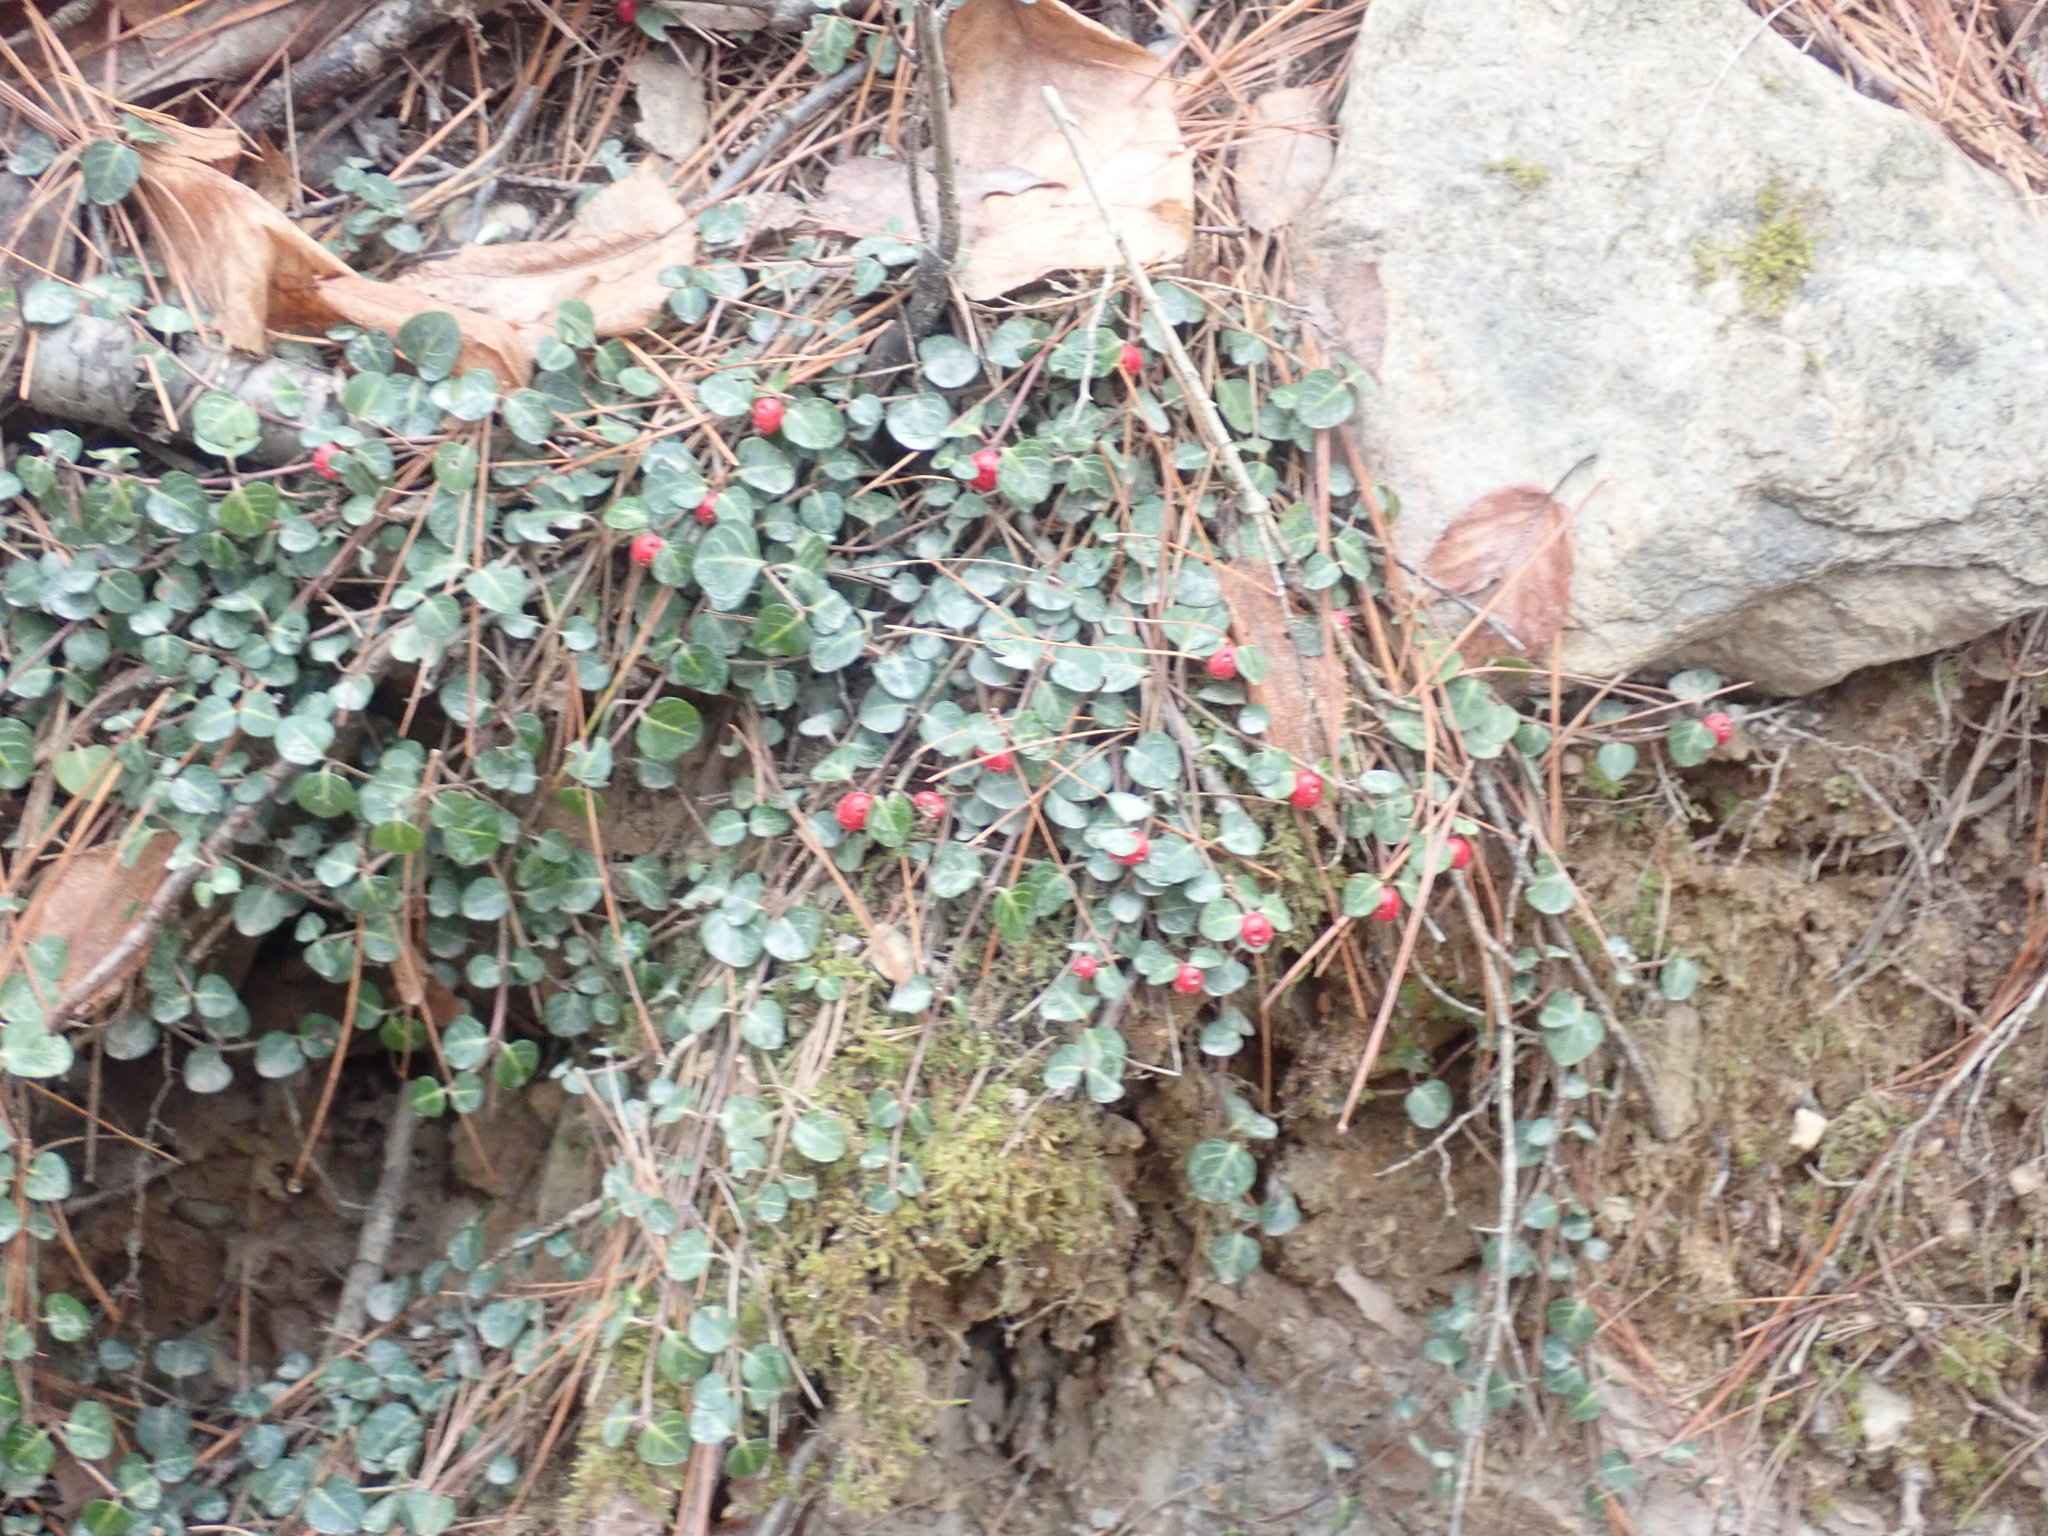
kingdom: Plantae
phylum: Tracheophyta
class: Magnoliopsida
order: Gentianales
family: Rubiaceae
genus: Mitchella
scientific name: Mitchella repens
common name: Partridge-berry
